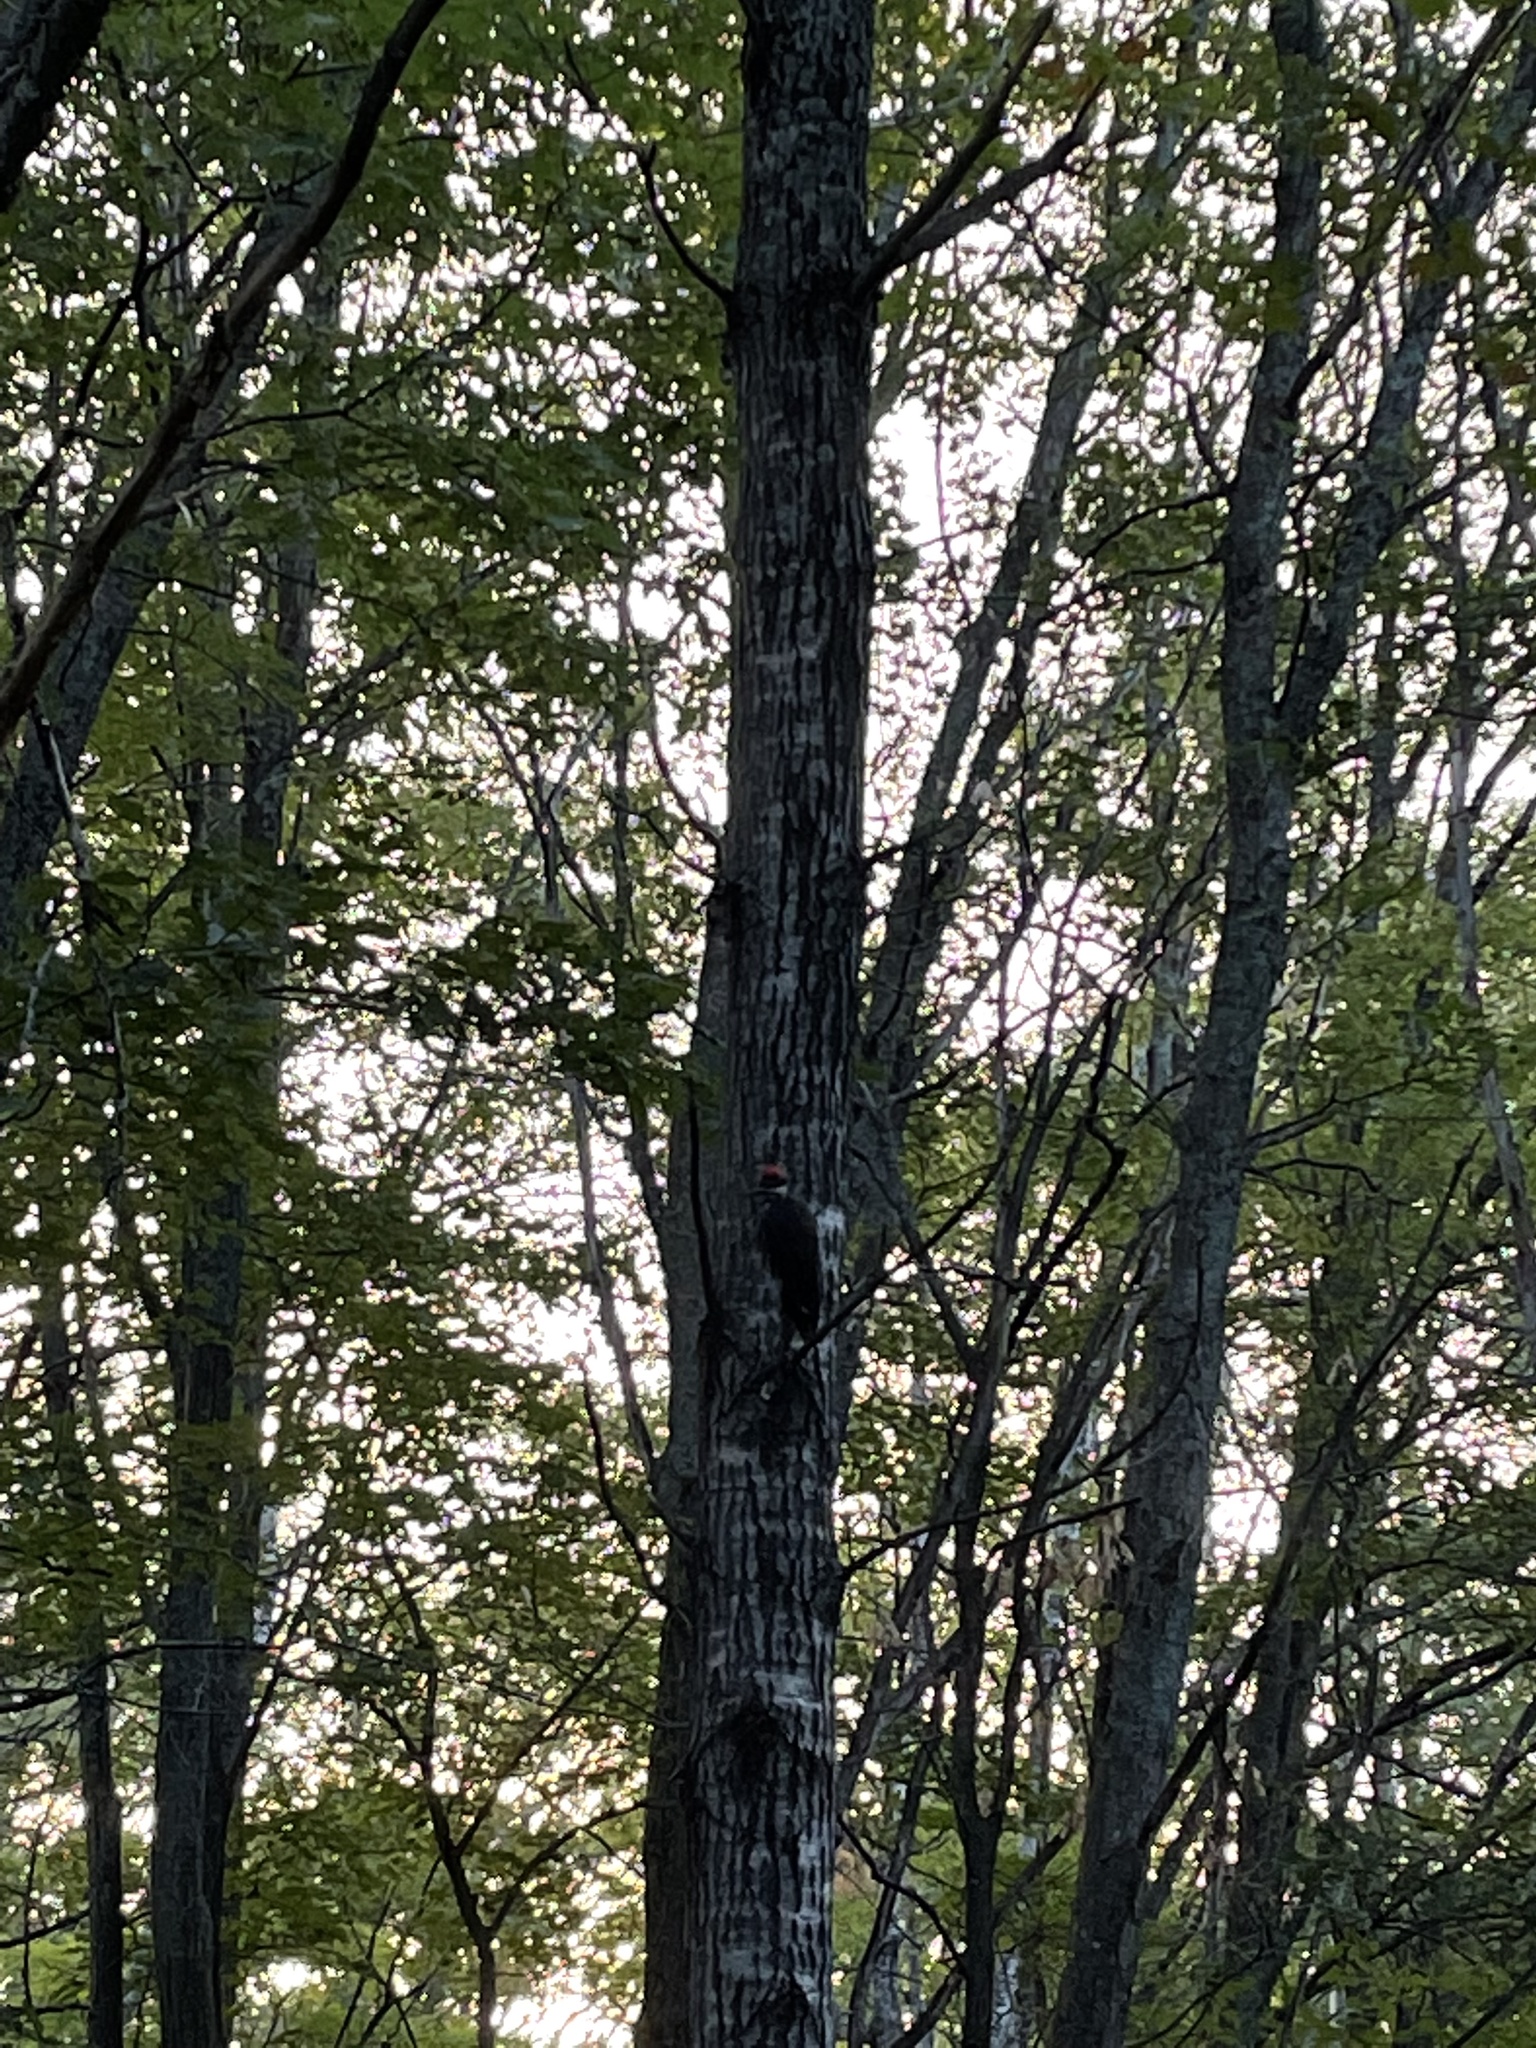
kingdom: Animalia
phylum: Chordata
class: Aves
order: Piciformes
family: Picidae
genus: Dryocopus
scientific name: Dryocopus pileatus
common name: Pileated woodpecker
